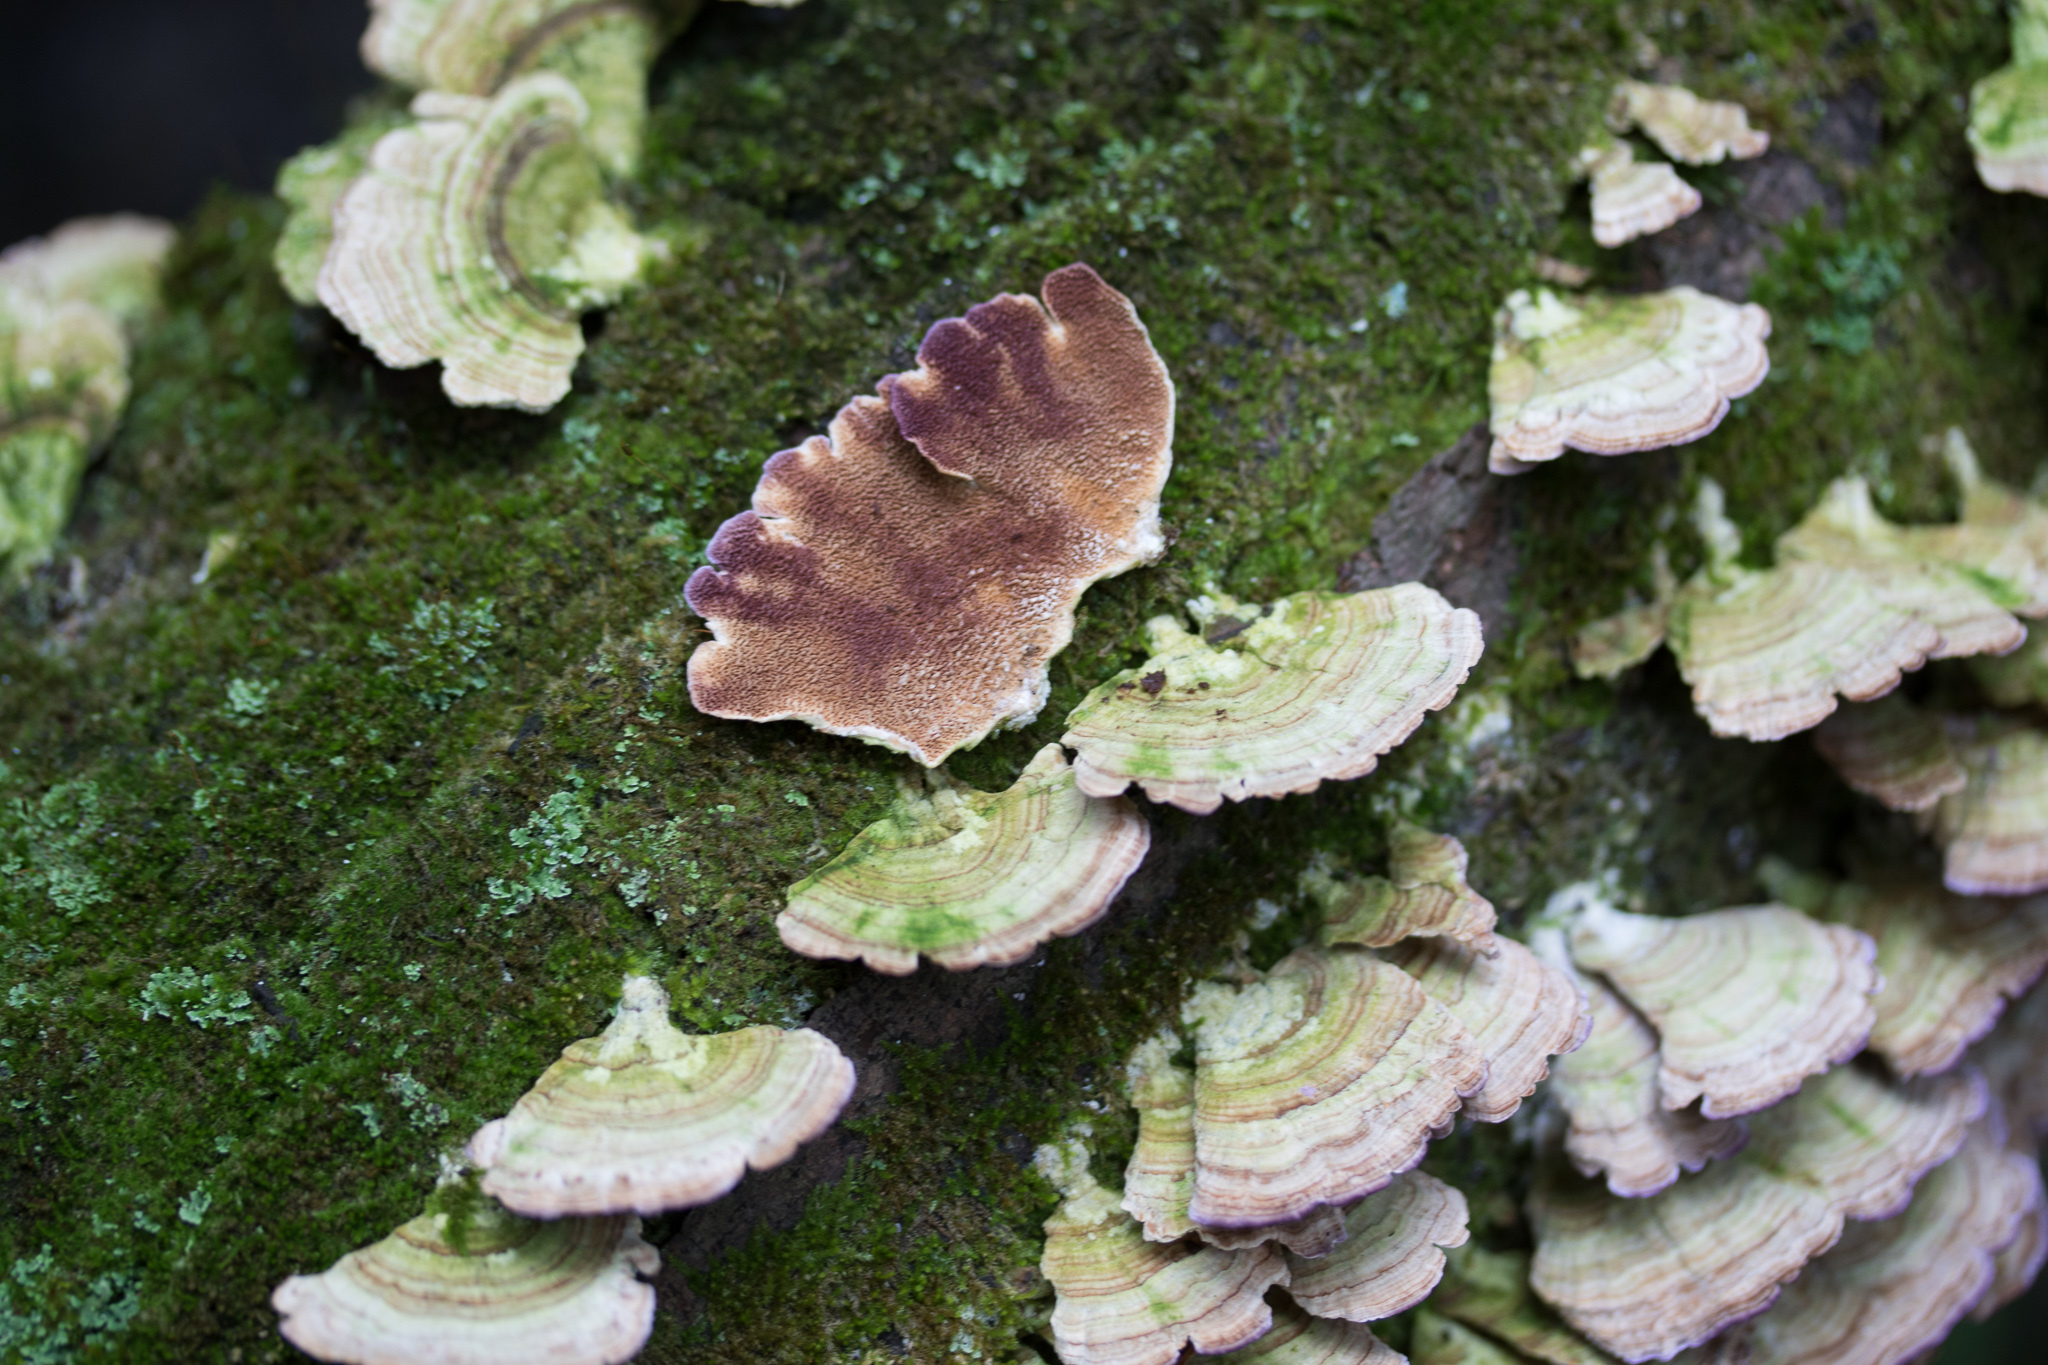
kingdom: Fungi
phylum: Basidiomycota
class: Agaricomycetes
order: Hymenochaetales
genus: Trichaptum
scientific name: Trichaptum biforme
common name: Violet-toothed polypore
